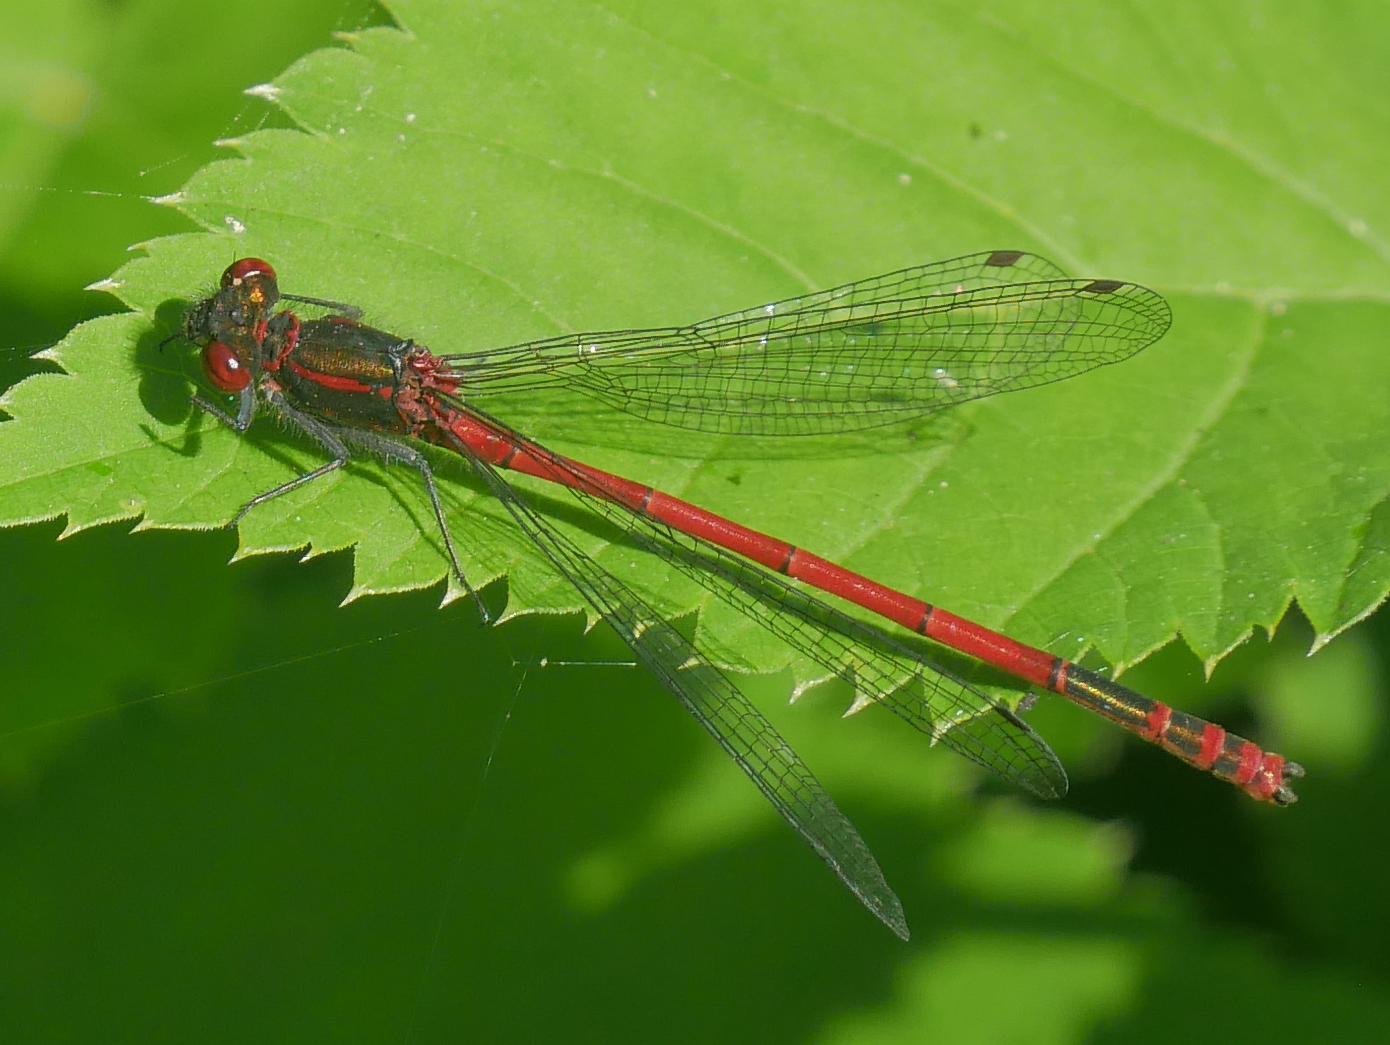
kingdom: Animalia
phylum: Arthropoda
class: Insecta
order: Odonata
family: Coenagrionidae
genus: Pyrrhosoma
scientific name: Pyrrhosoma nymphula
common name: Large red damsel
